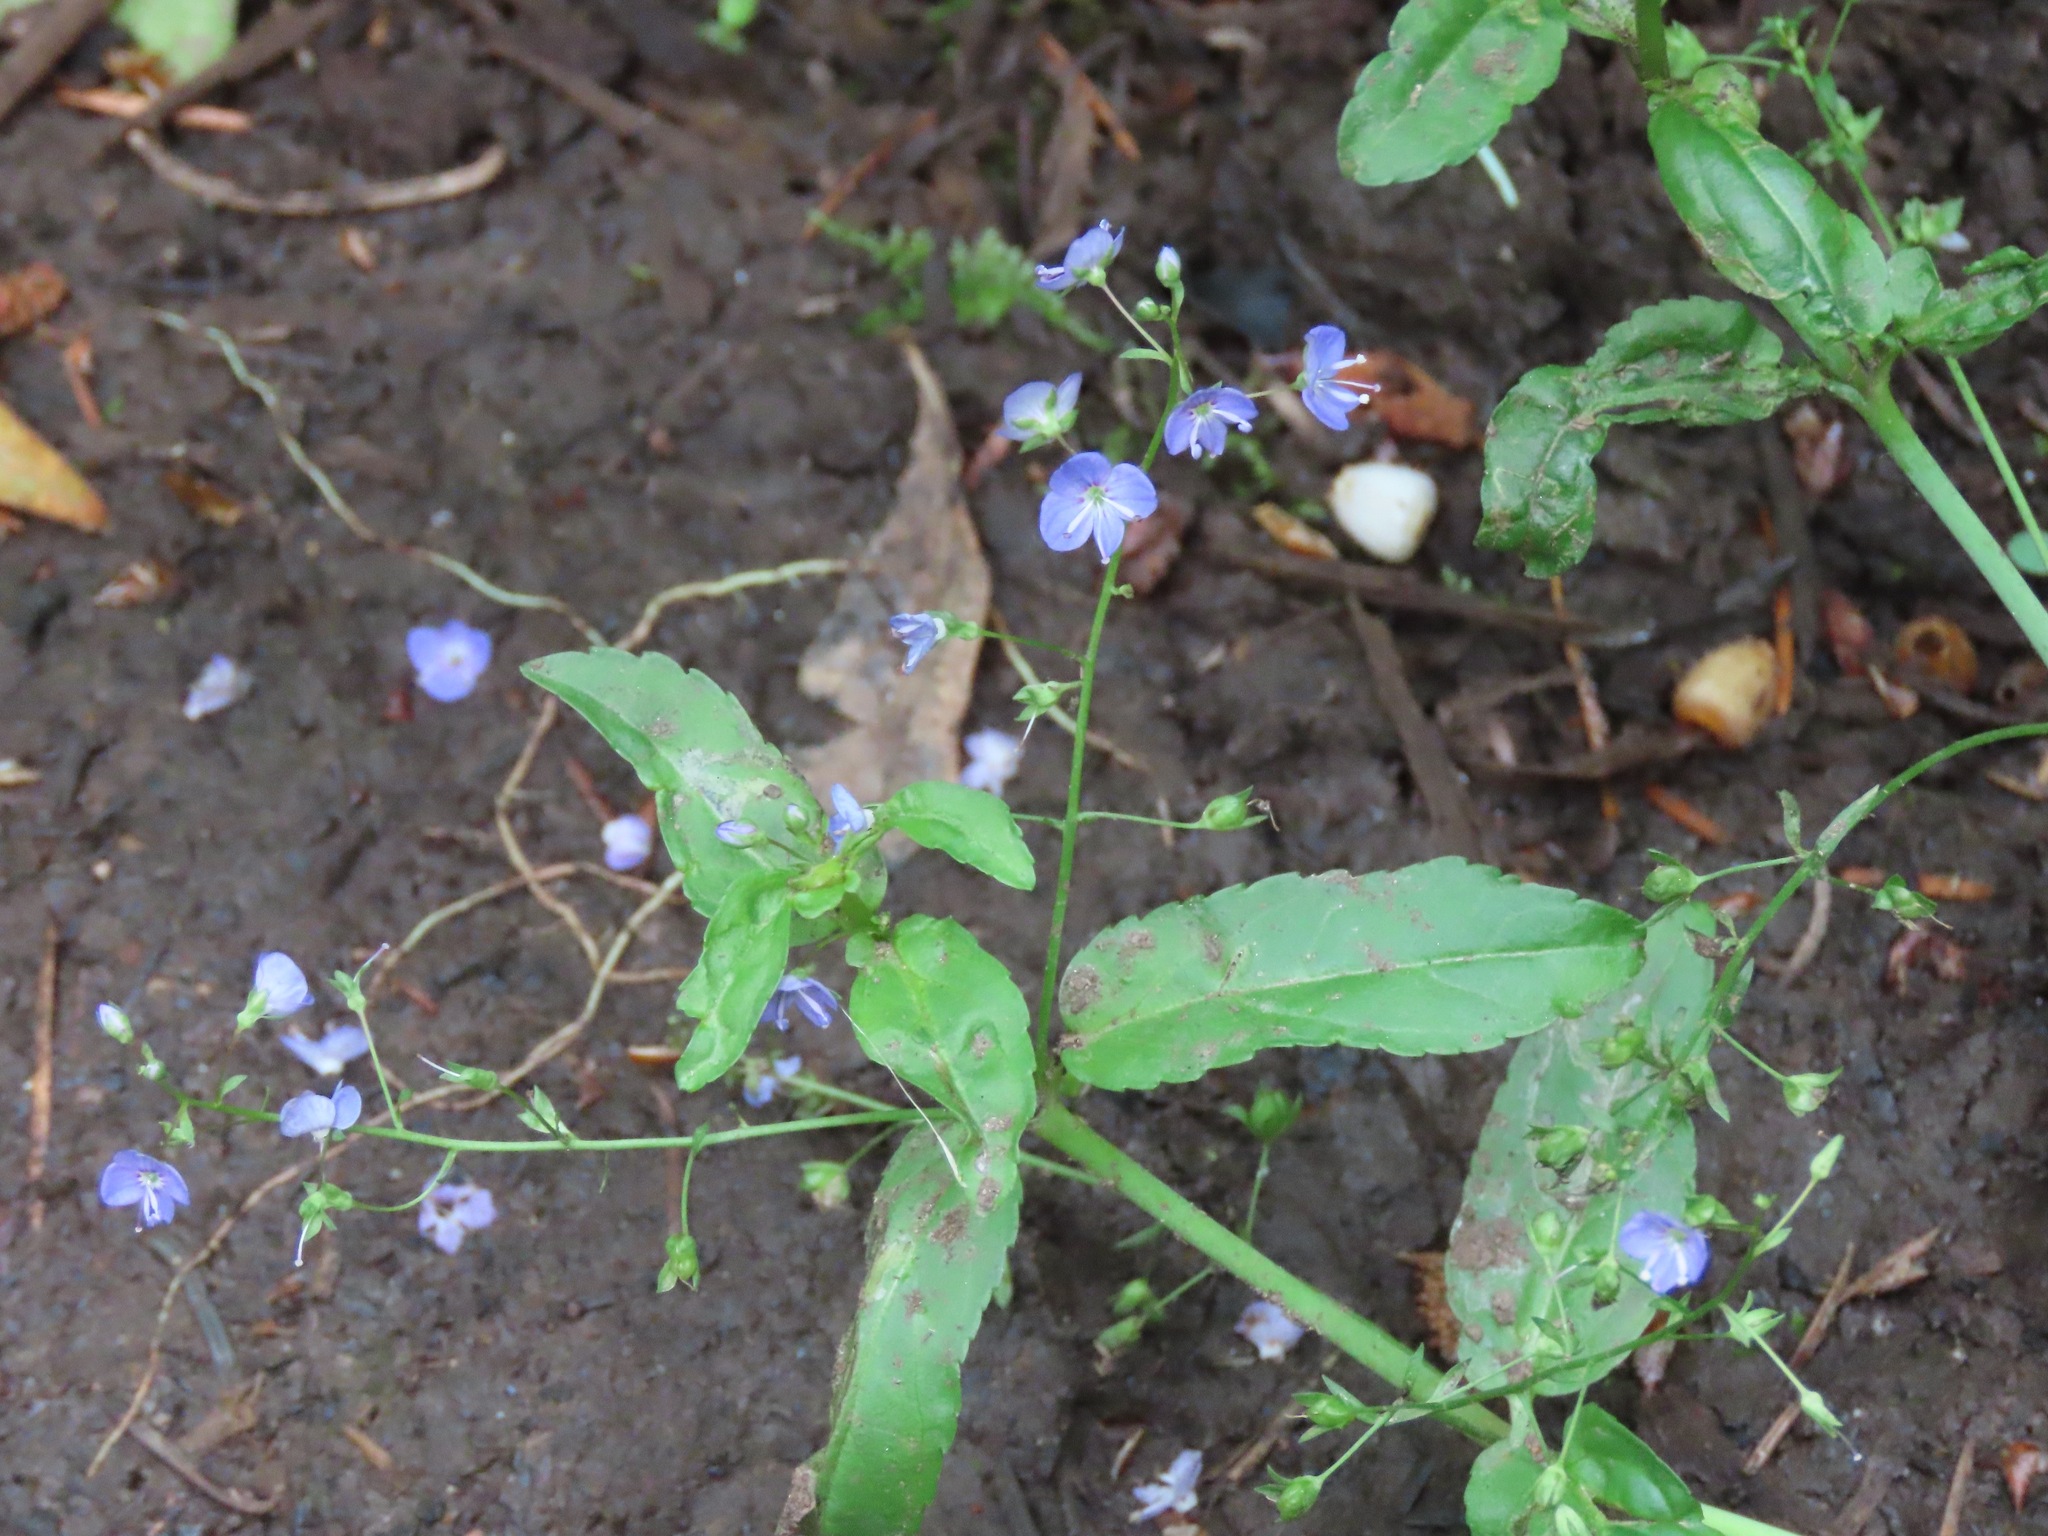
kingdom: Plantae
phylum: Tracheophyta
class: Magnoliopsida
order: Lamiales
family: Plantaginaceae
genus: Veronica
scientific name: Veronica americana
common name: American brooklime
